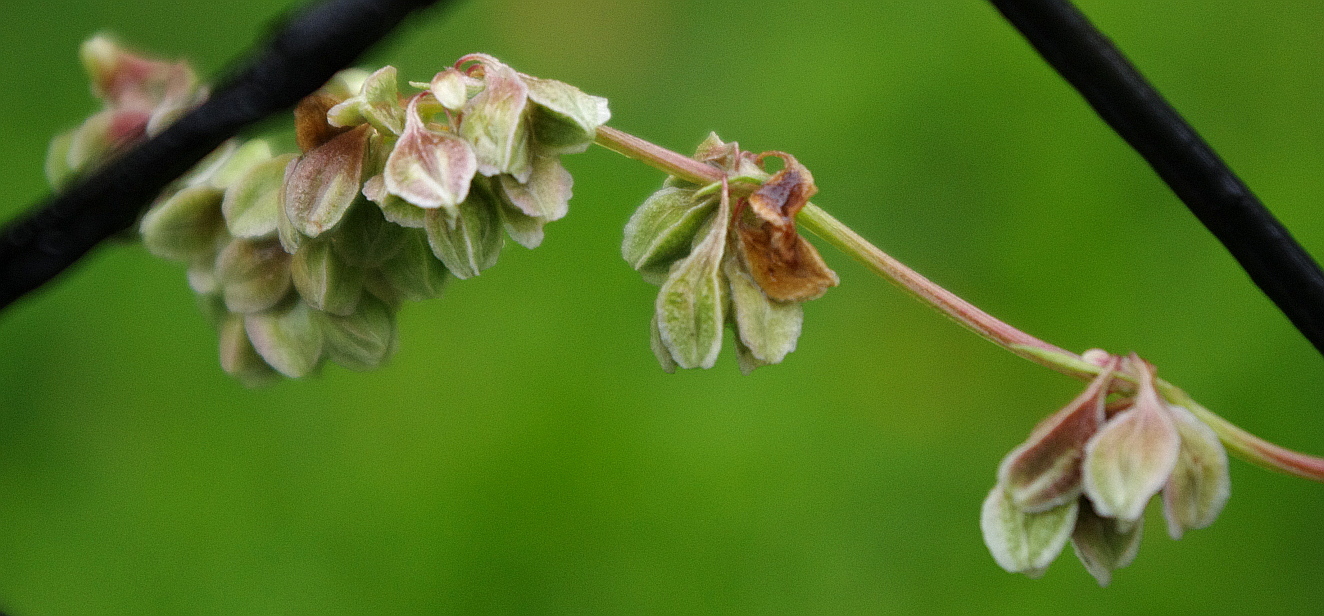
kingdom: Plantae
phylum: Tracheophyta
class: Magnoliopsida
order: Caryophyllales
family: Polygonaceae
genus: Fallopia
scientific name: Fallopia convolvulus
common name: Black bindweed
